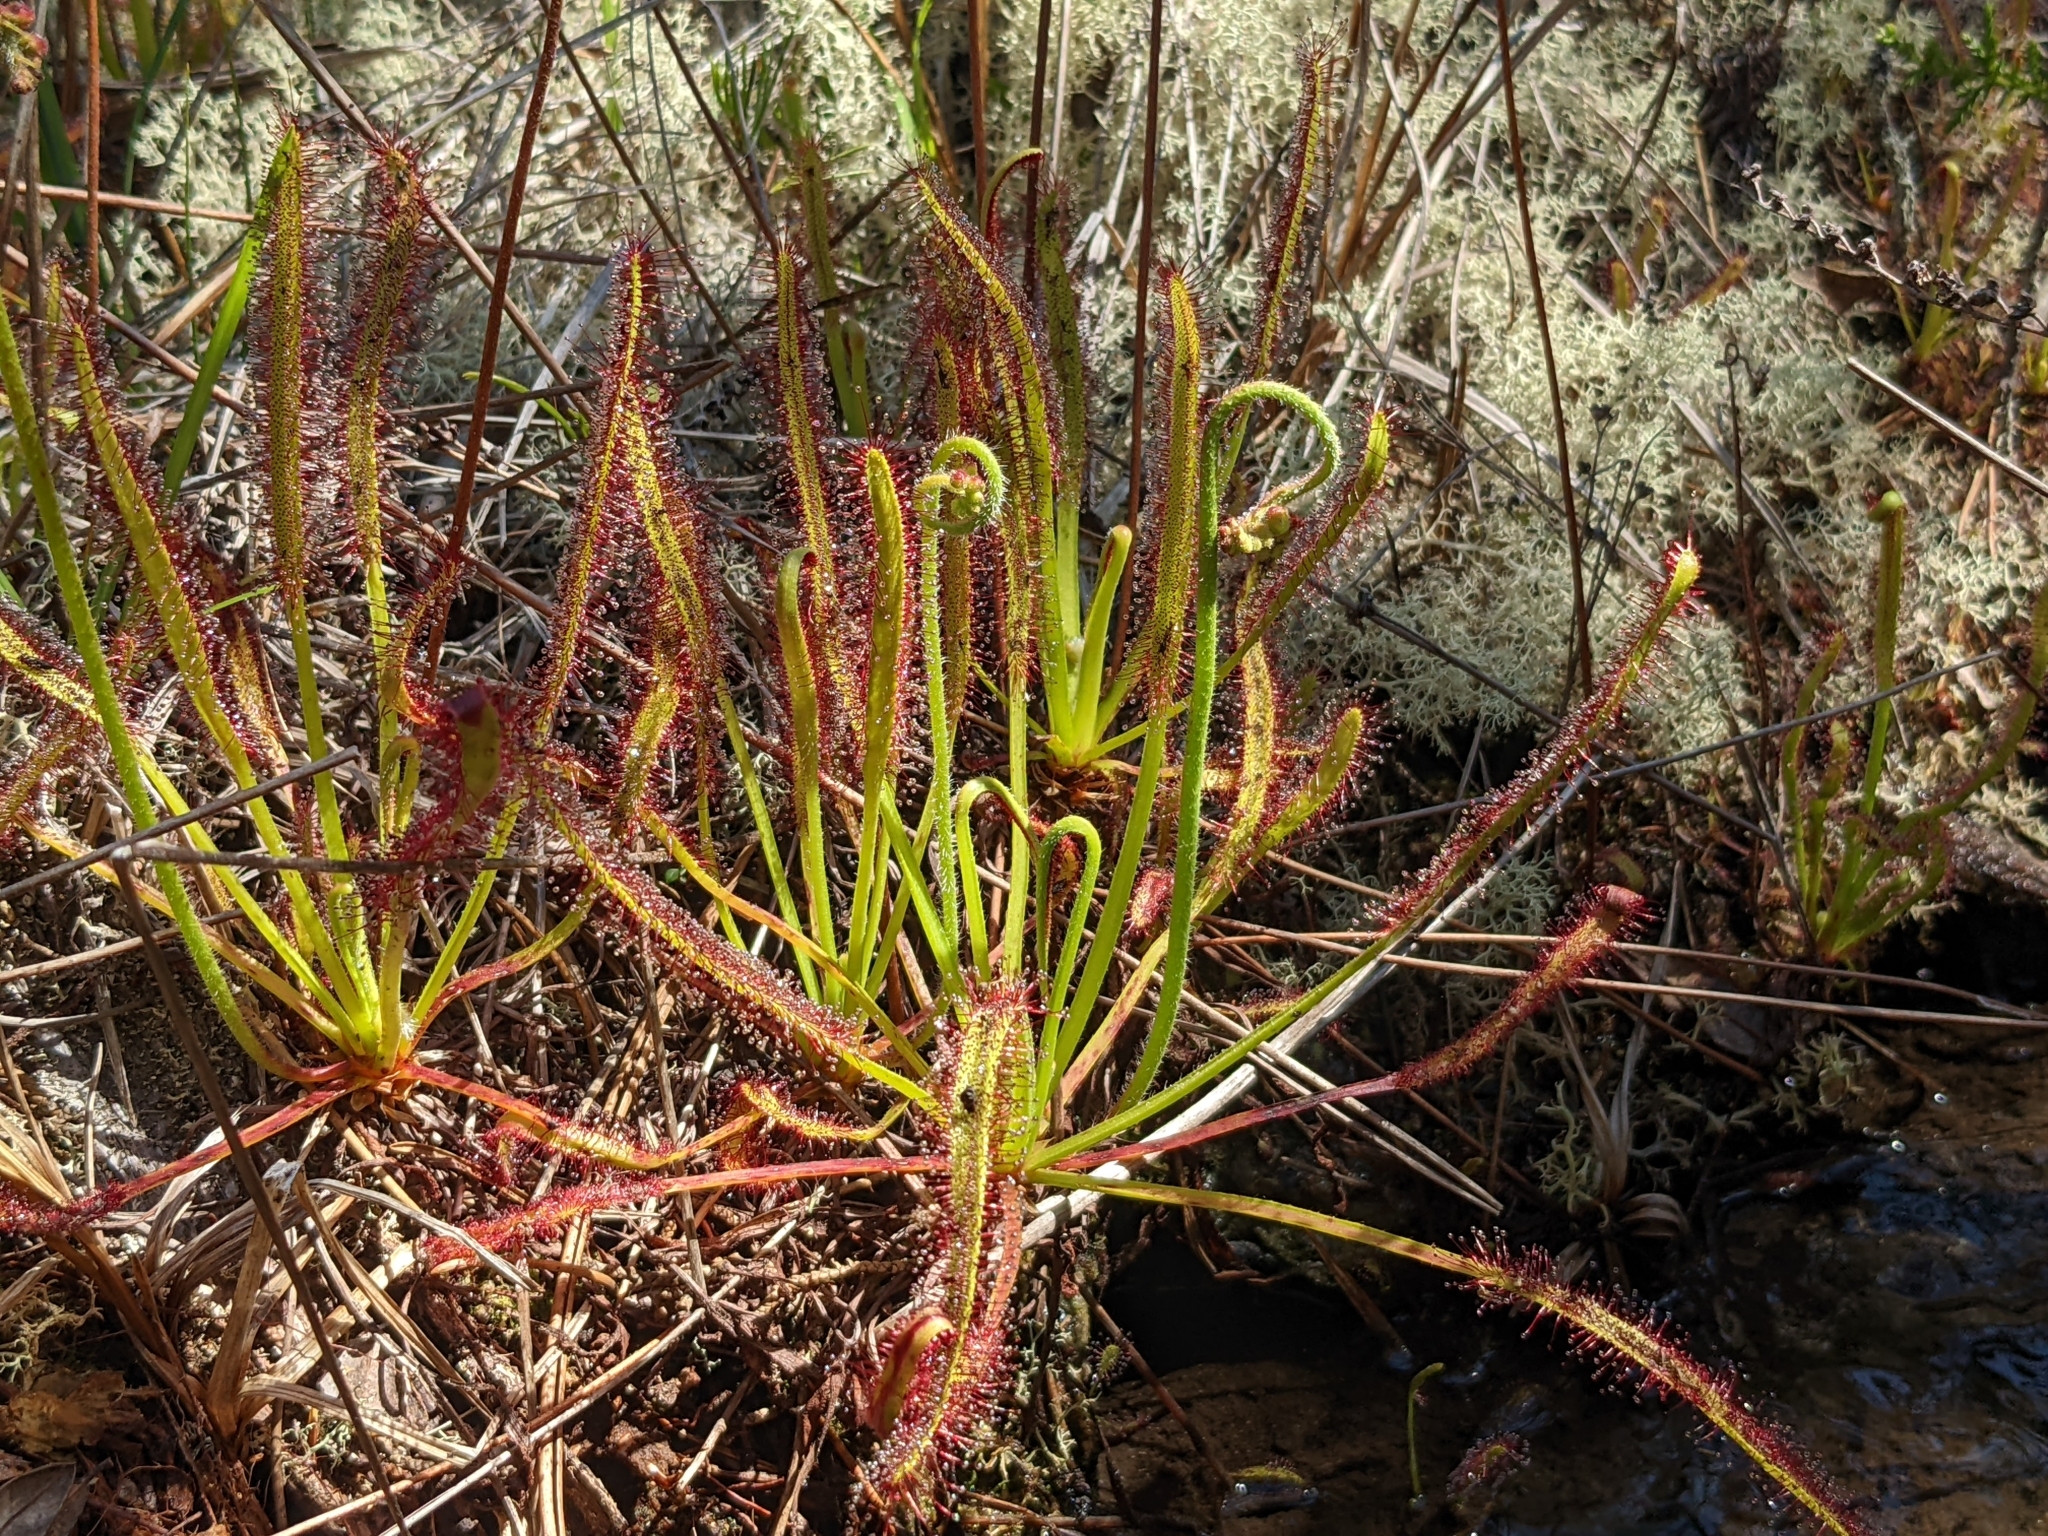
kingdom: Plantae
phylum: Tracheophyta
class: Magnoliopsida
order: Caryophyllales
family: Droseraceae
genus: Drosera
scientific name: Drosera capensis
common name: Cape sundew
